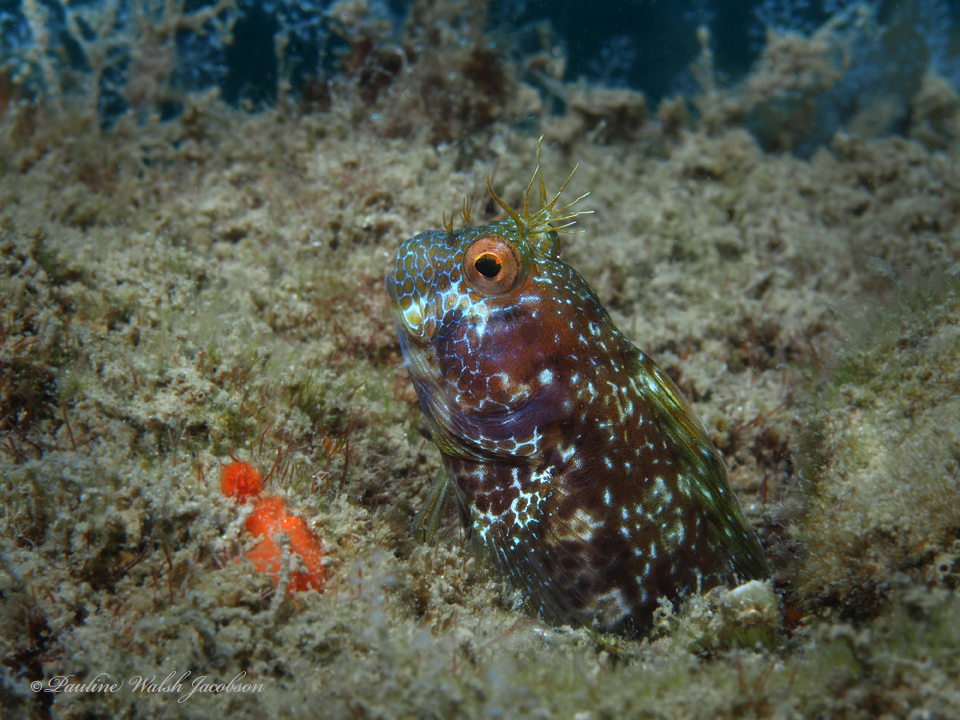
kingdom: Animalia
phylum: Chordata
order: Perciformes
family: Blenniidae
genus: Parablennius
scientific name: Parablennius marmoreus
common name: Seaweed blenny
